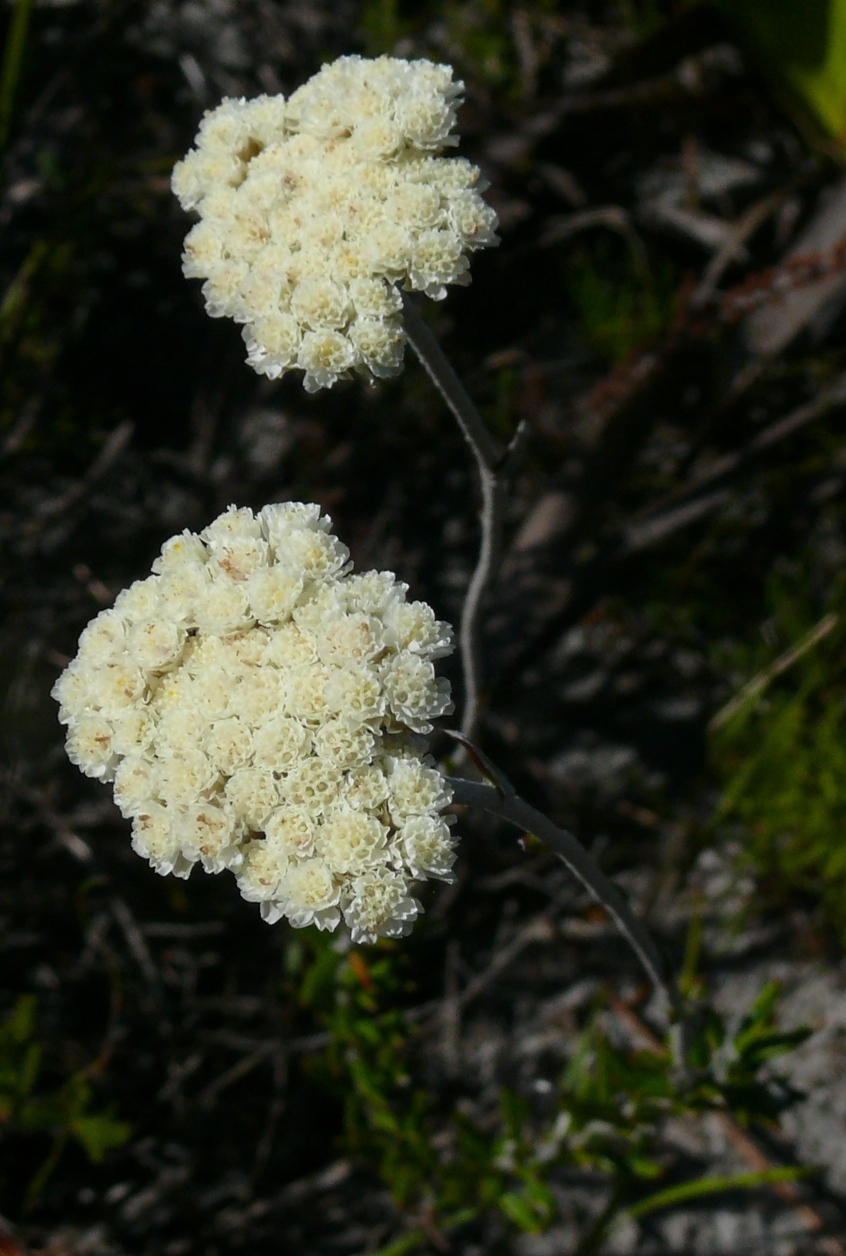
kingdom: Plantae
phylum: Tracheophyta
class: Magnoliopsida
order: Asterales
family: Asteraceae
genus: Anaxeton
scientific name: Anaxeton laeve
